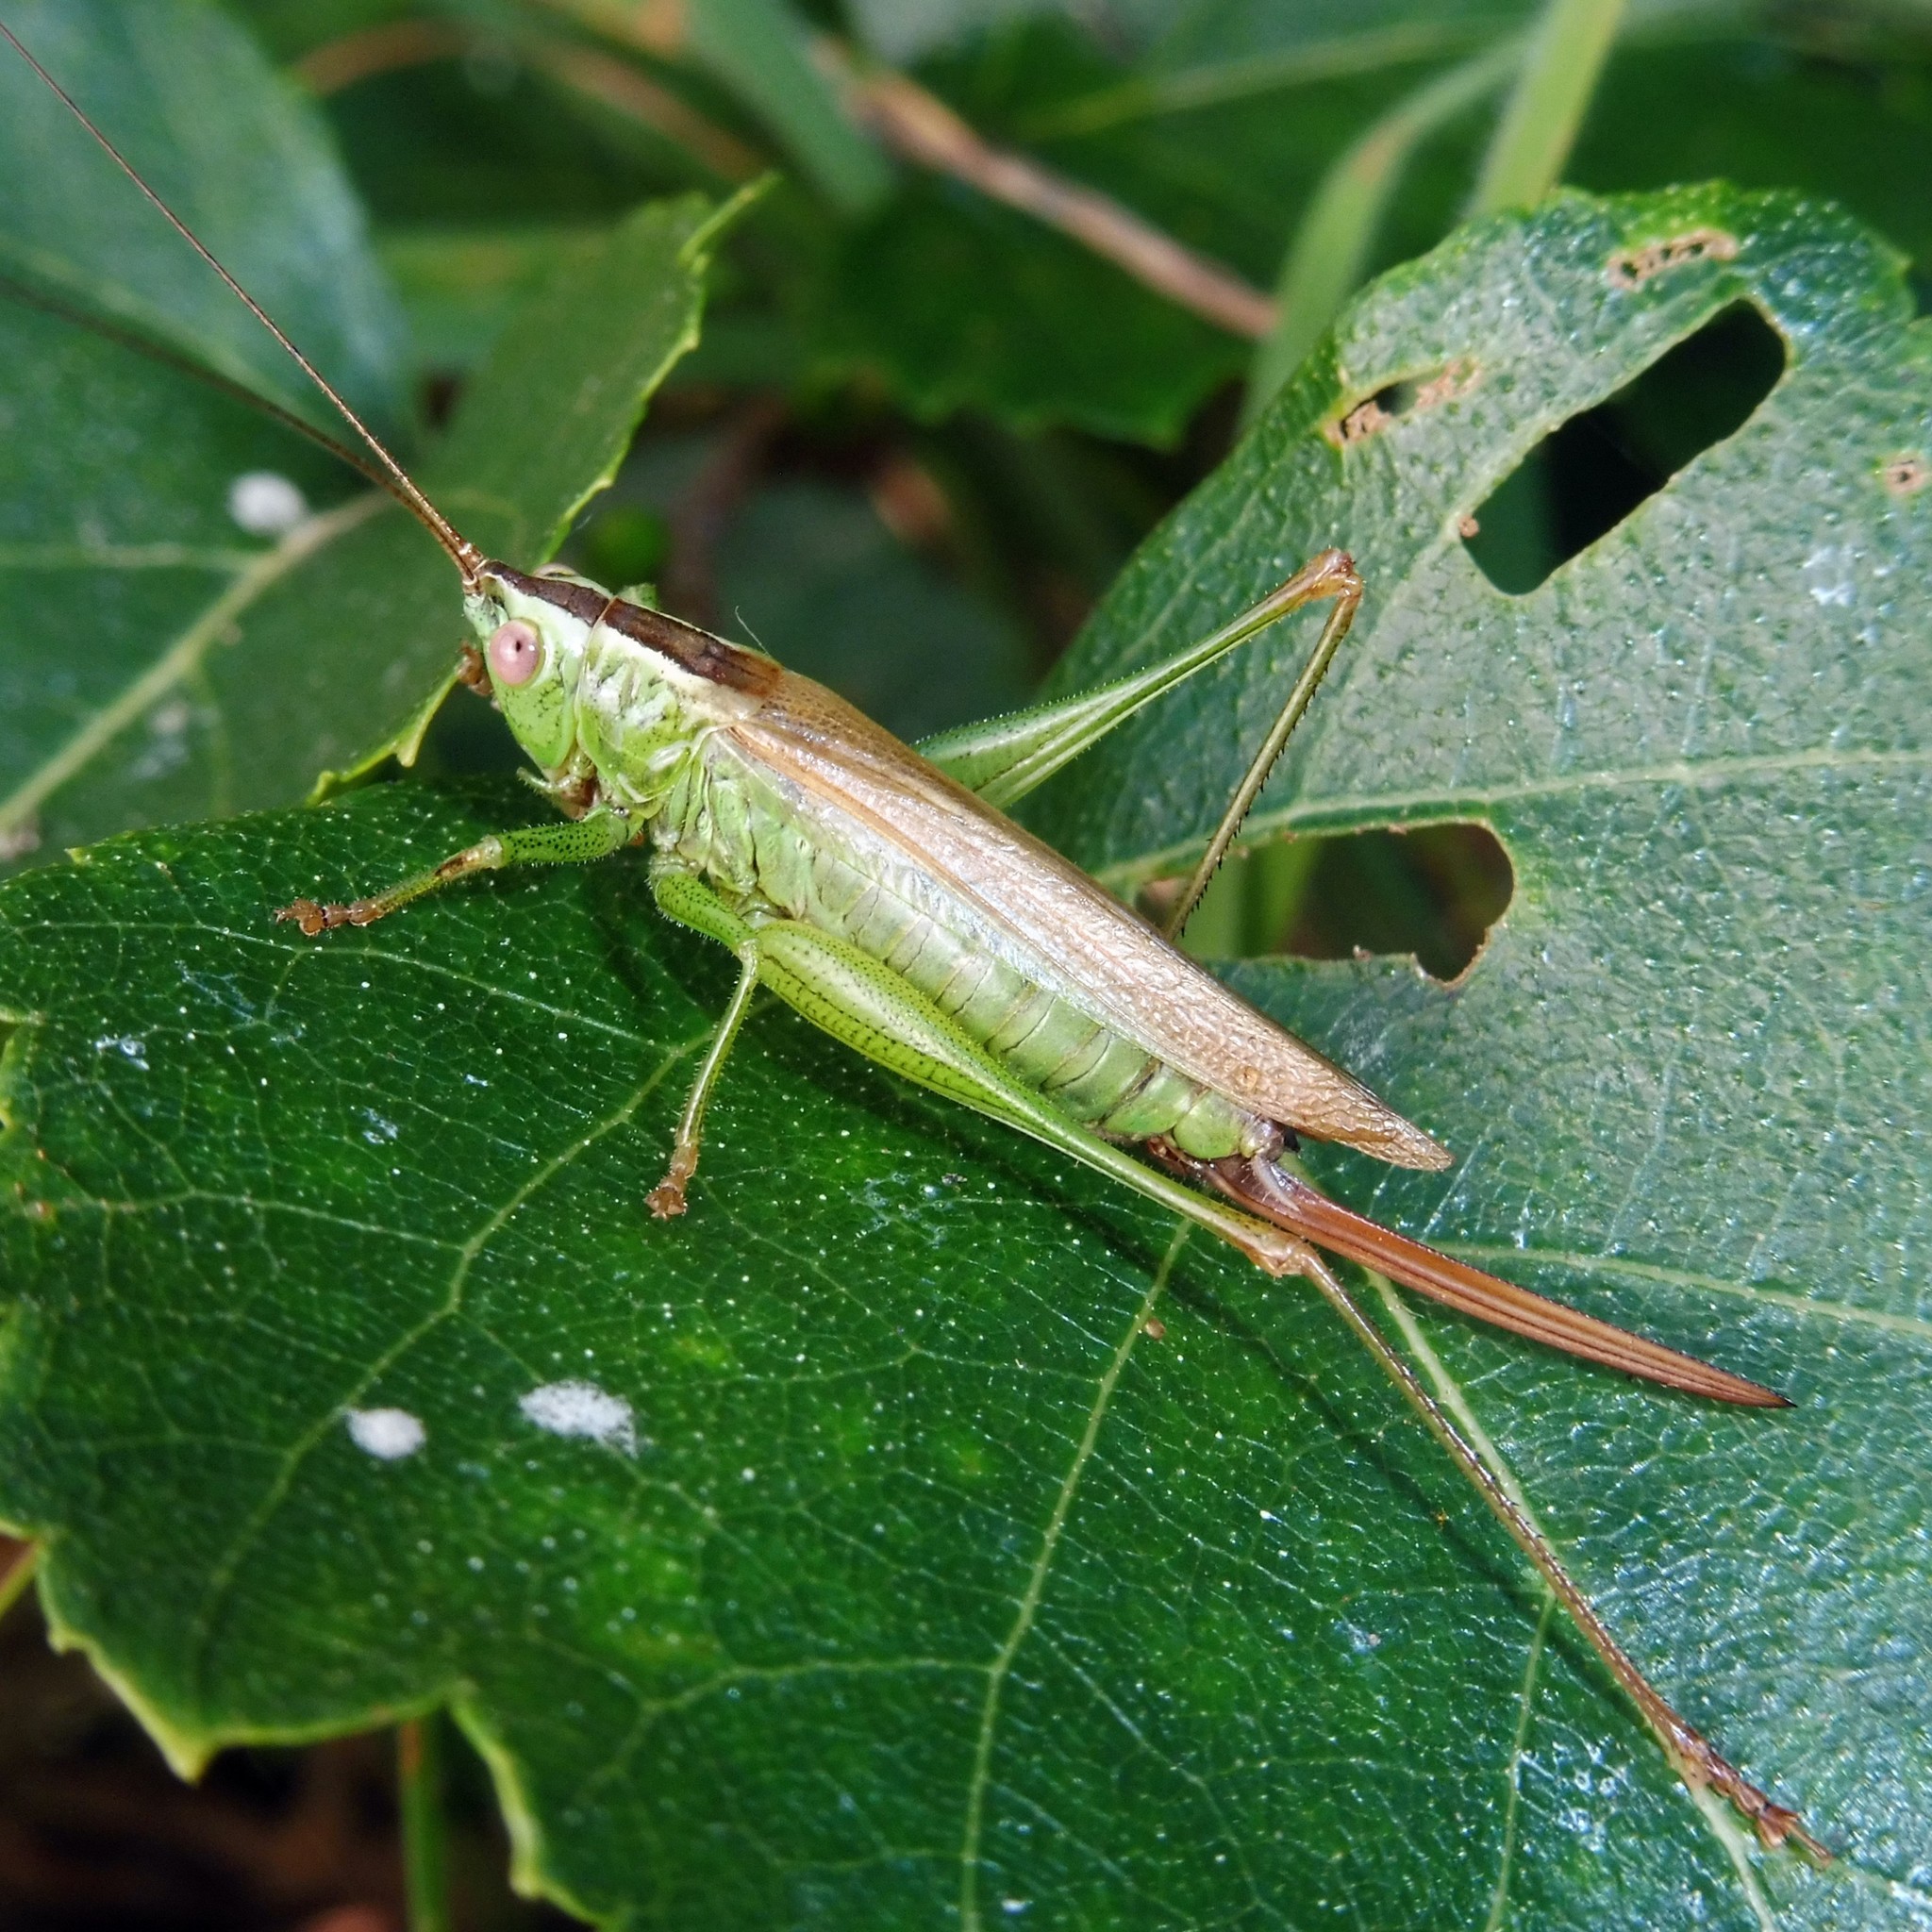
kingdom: Animalia
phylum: Arthropoda
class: Insecta
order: Orthoptera
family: Tettigoniidae
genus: Conocephalus
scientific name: Conocephalus fuscus
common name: Long-winged conehead
